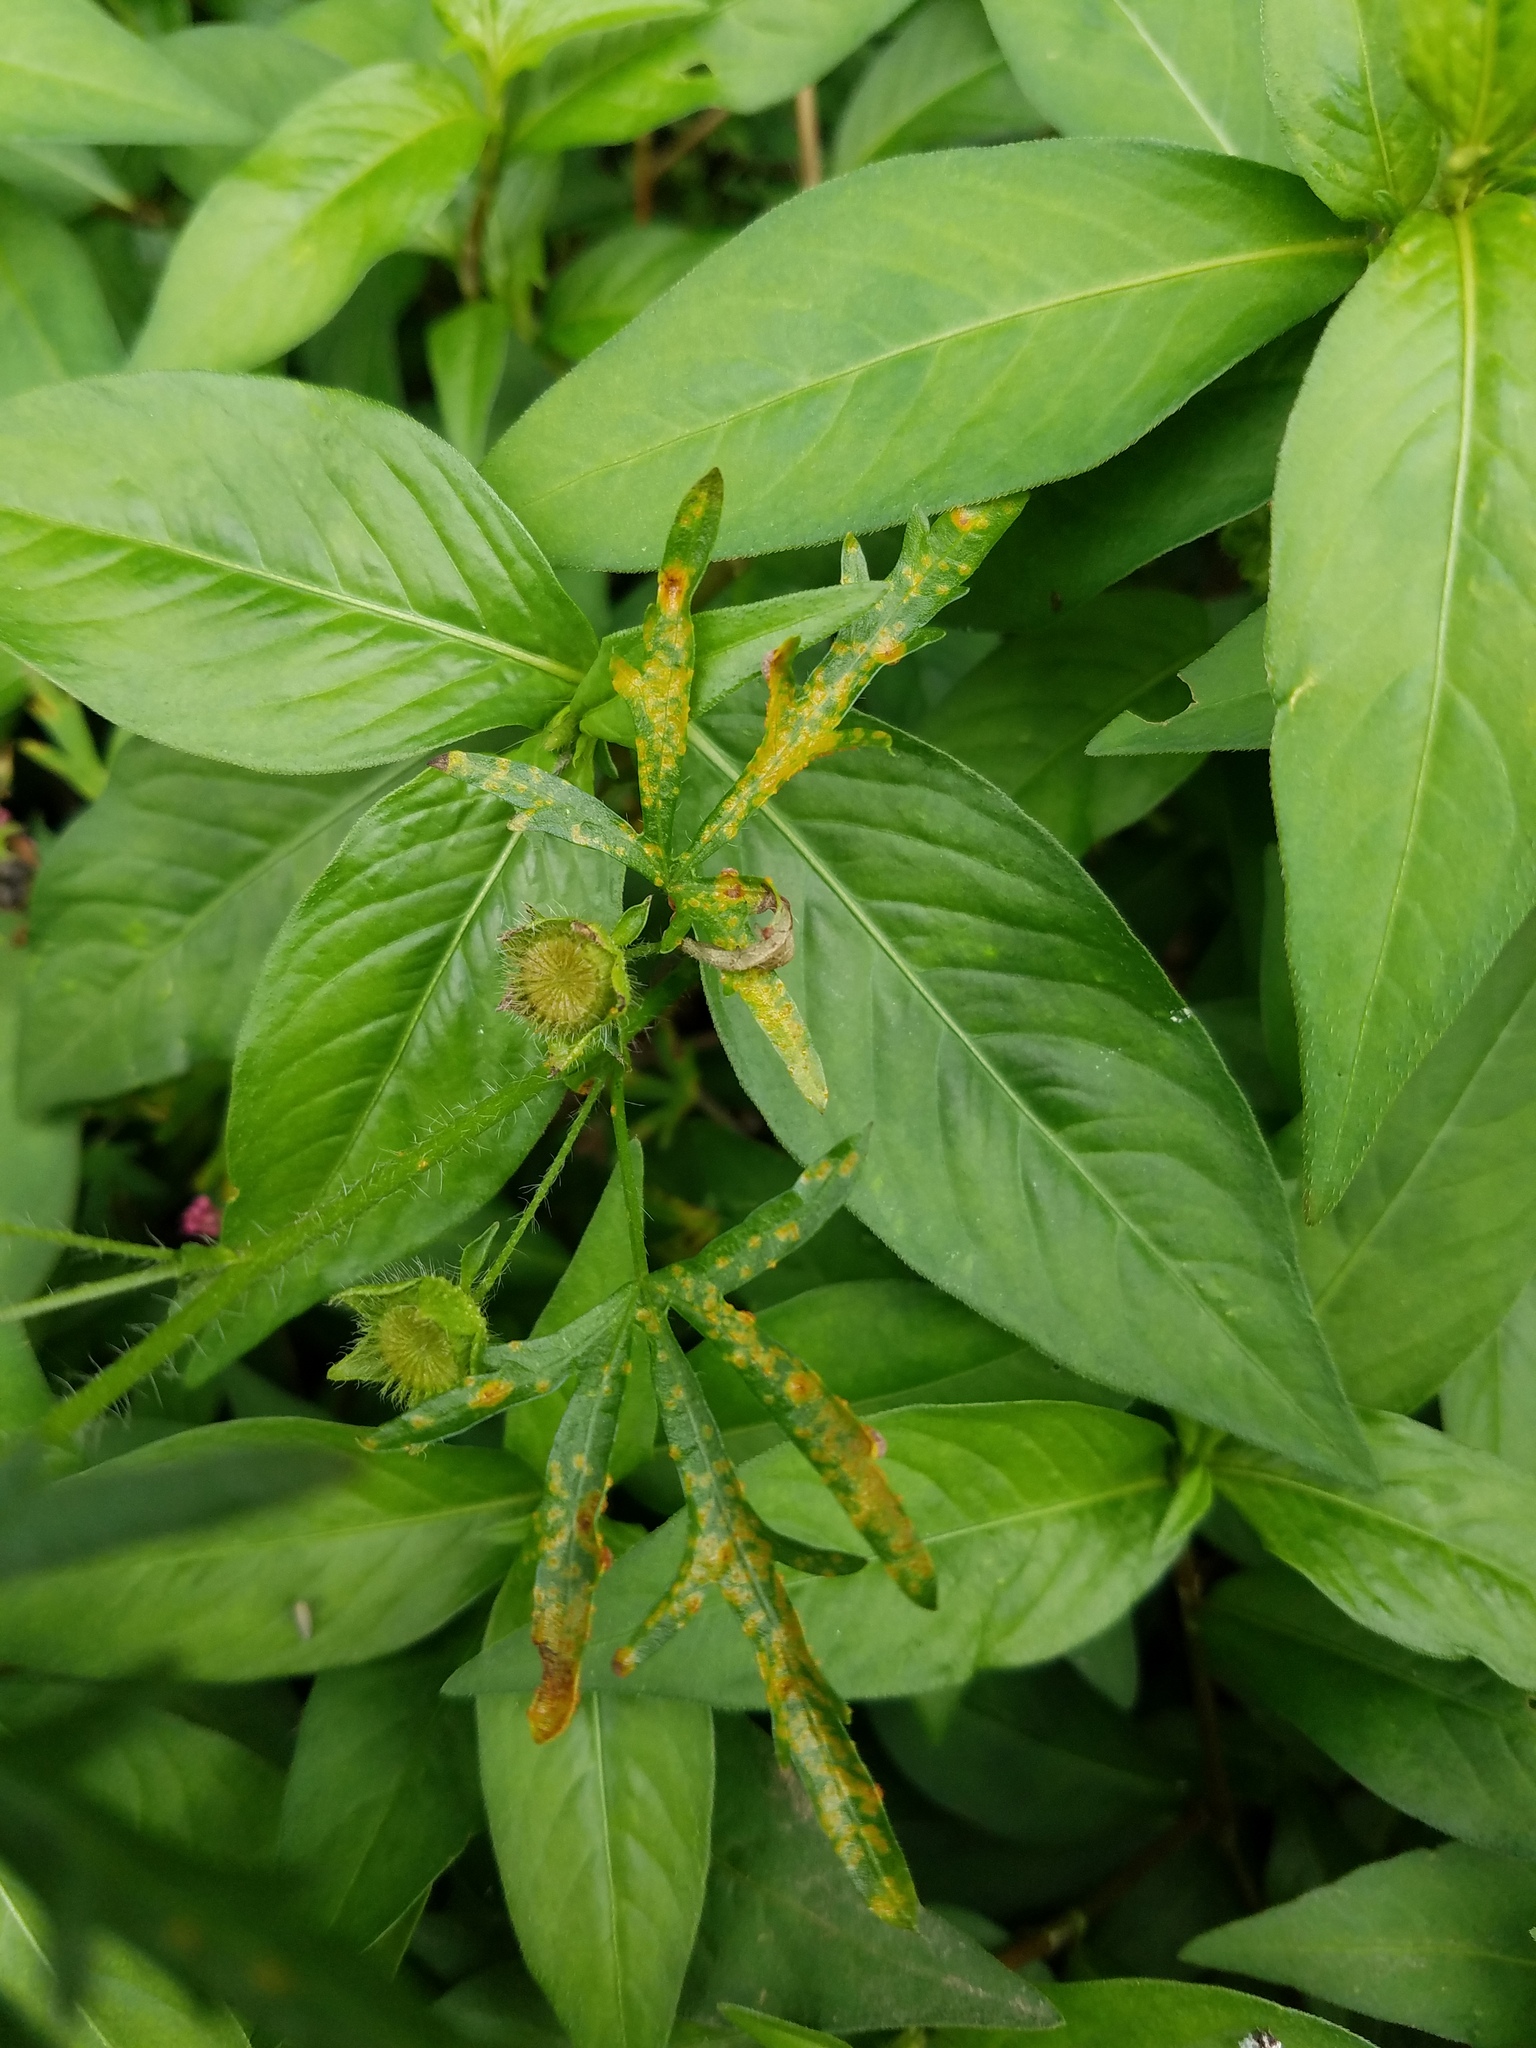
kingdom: Plantae
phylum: Tracheophyta
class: Magnoliopsida
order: Malvales
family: Malvaceae
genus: Modiola
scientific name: Modiola caroliniana
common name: Carolina bristlemallow
